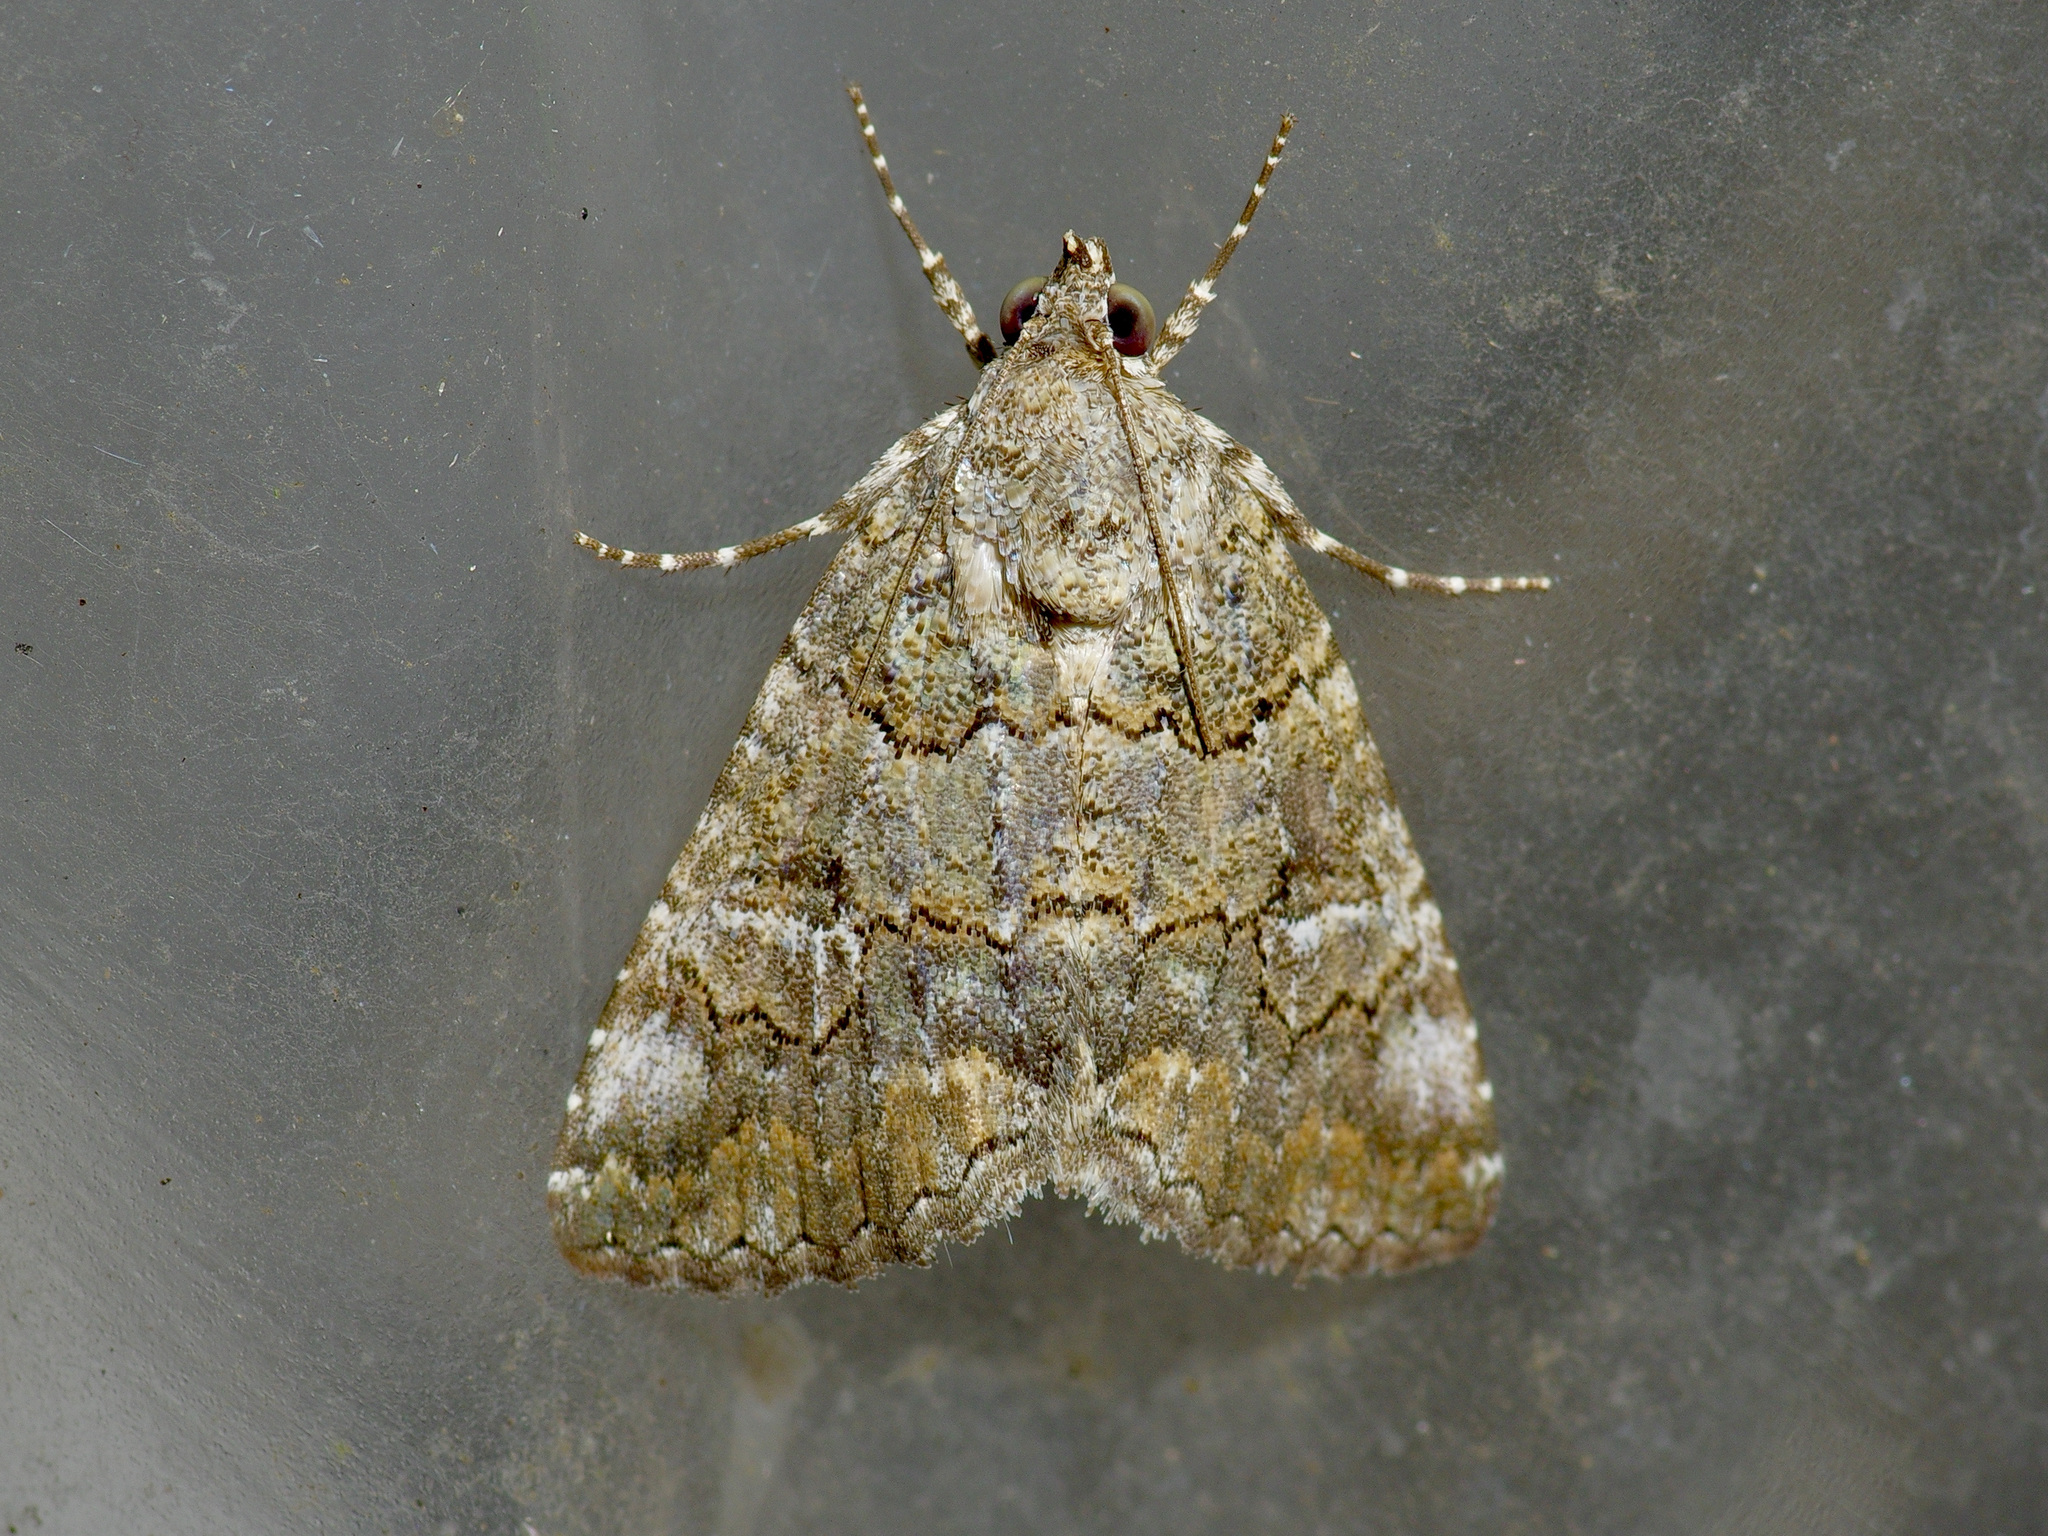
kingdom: Animalia
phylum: Arthropoda
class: Insecta
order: Lepidoptera
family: Erebidae
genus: Eubolina
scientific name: Eubolina impartialis
